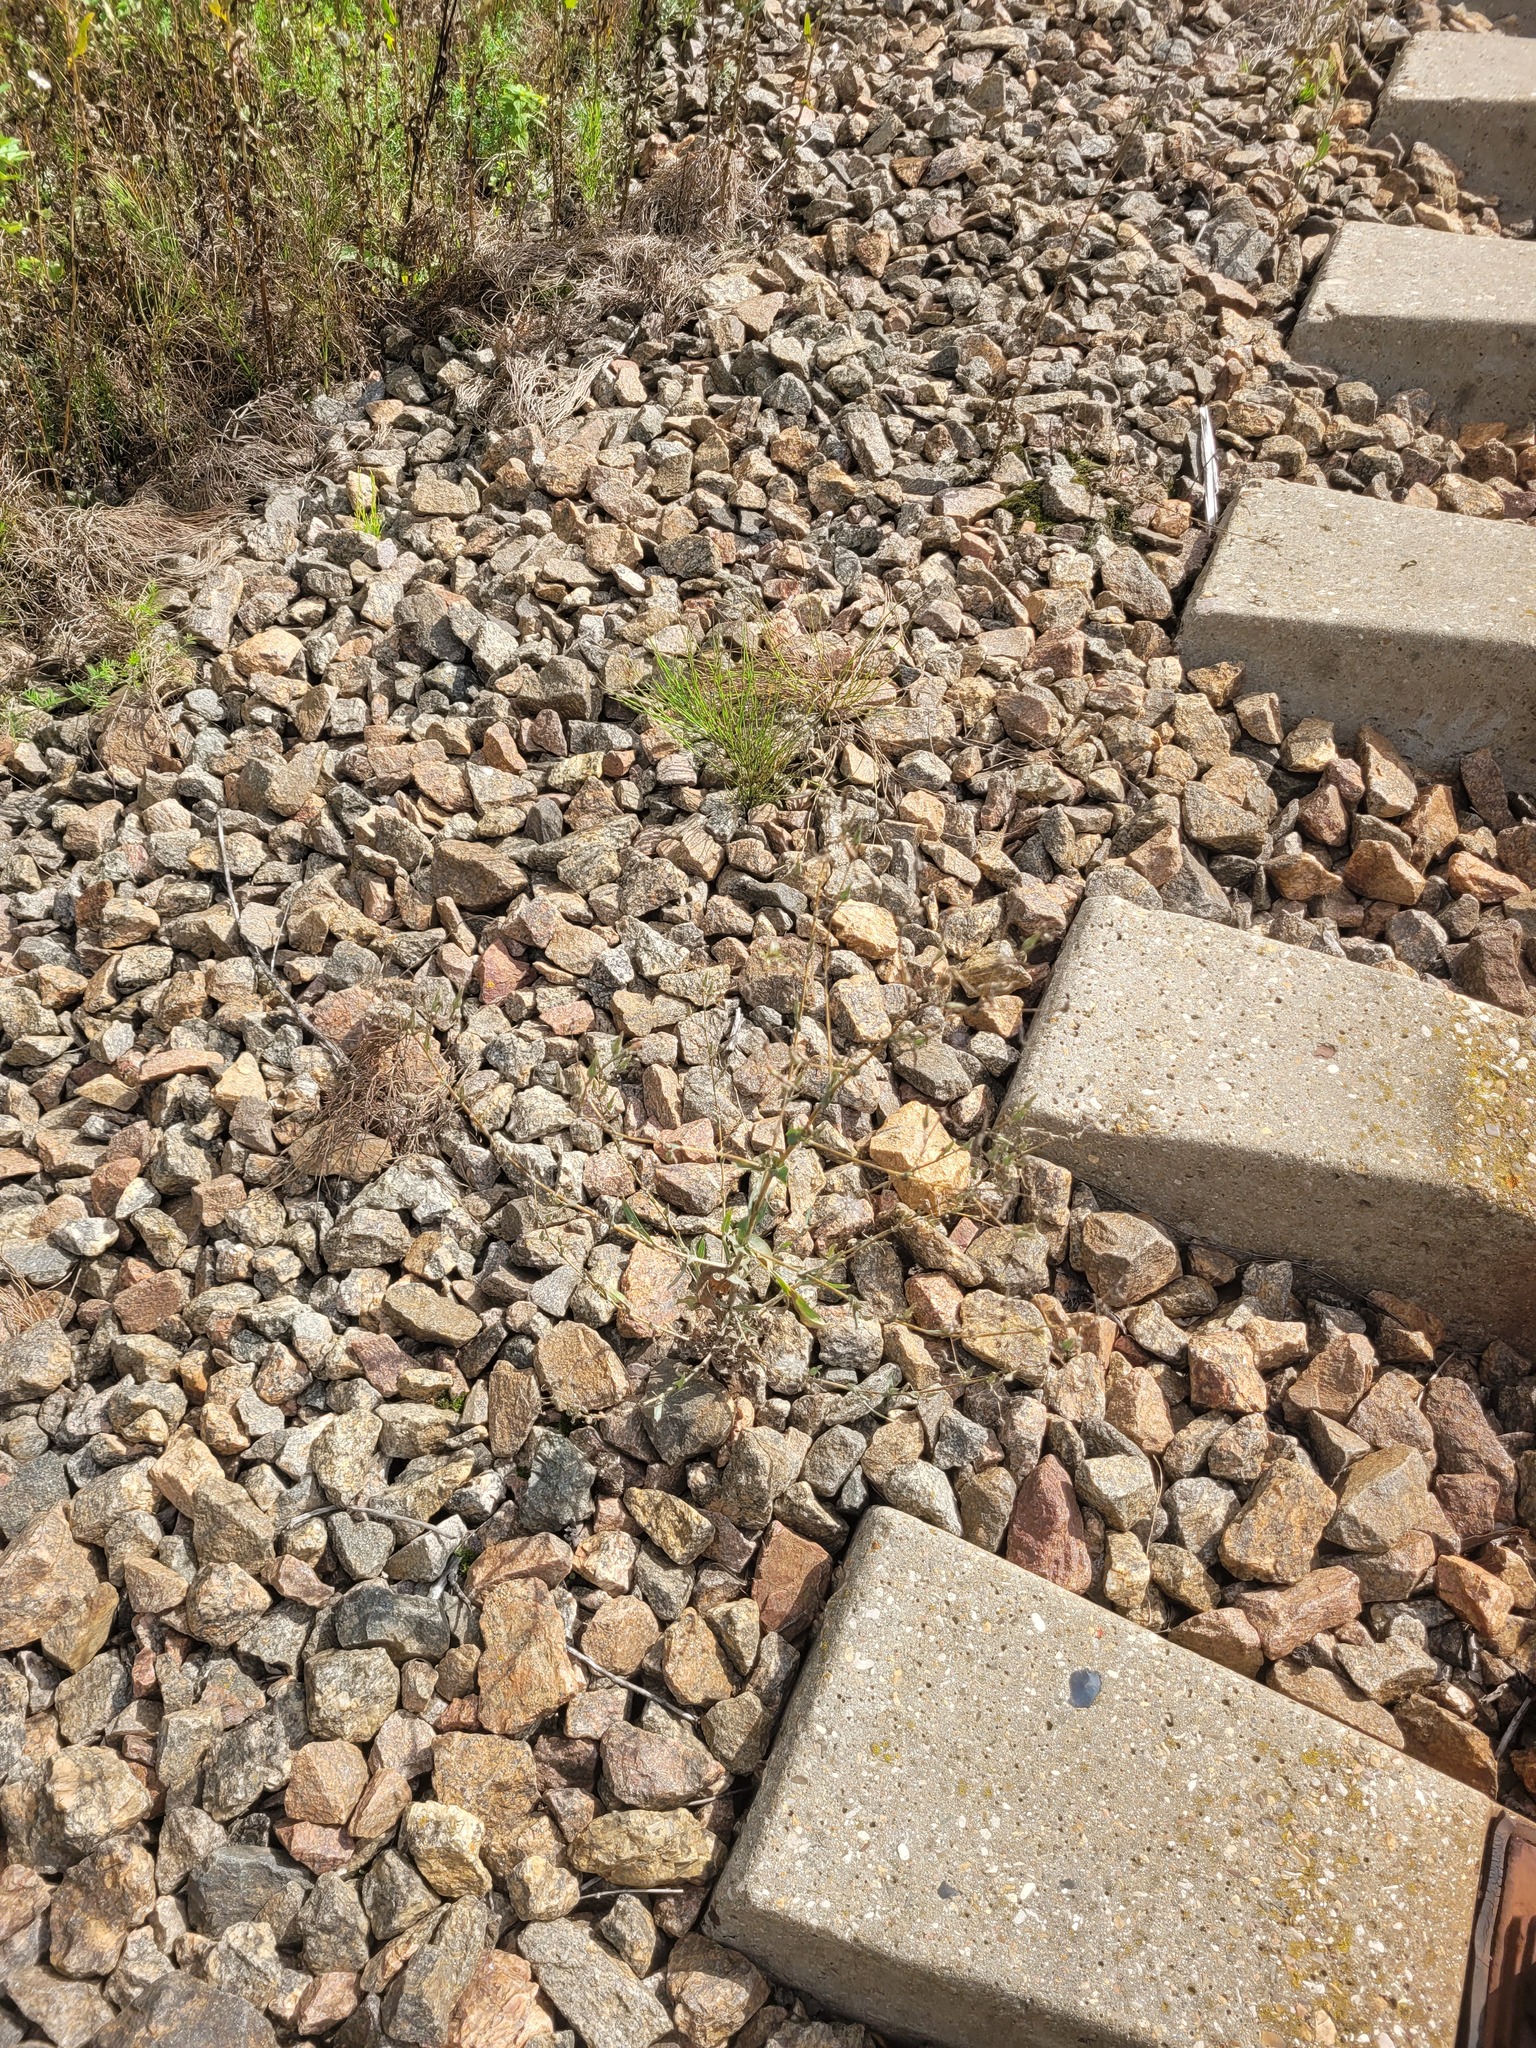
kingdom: Plantae
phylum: Tracheophyta
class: Magnoliopsida
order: Asterales
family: Asteraceae
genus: Lactuca
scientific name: Lactuca serriola
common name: Prickly lettuce
